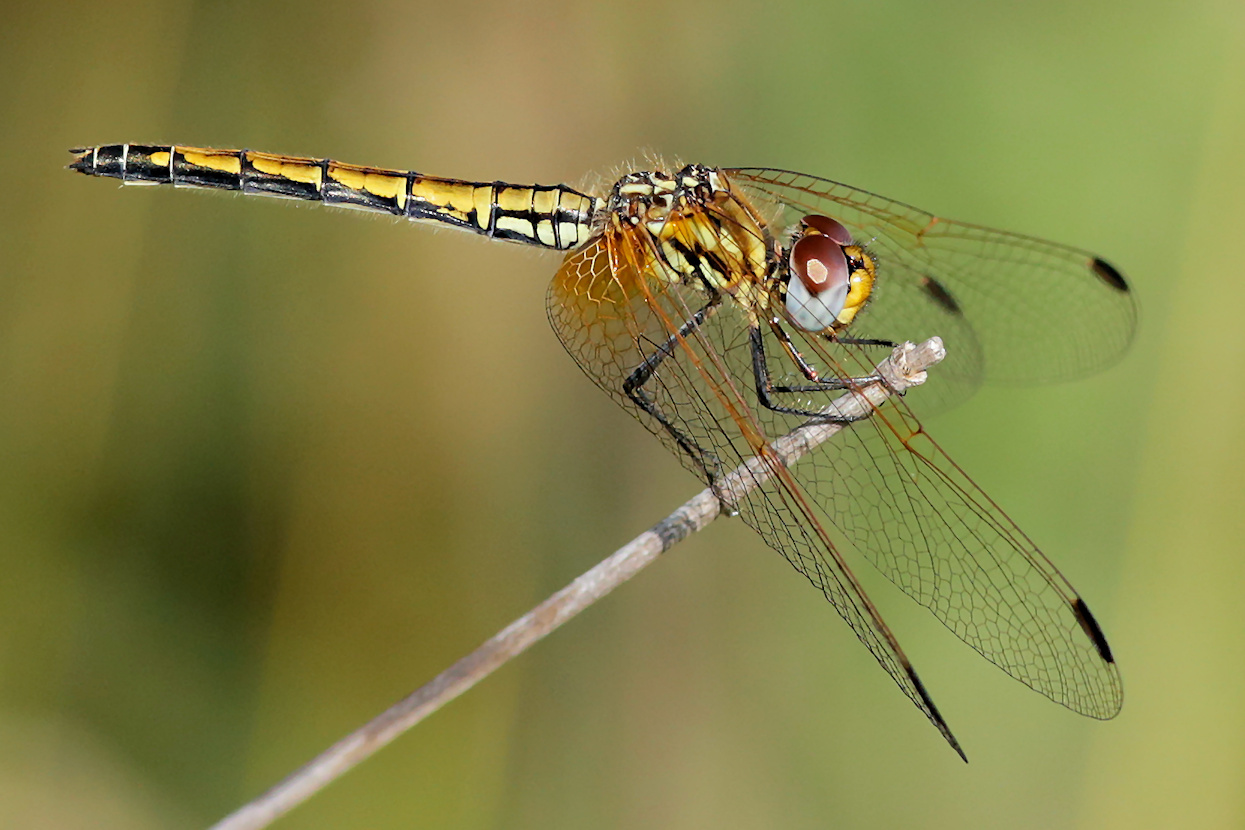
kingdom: Animalia
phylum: Arthropoda
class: Insecta
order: Odonata
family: Libellulidae
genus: Trithemis
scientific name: Trithemis arteriosa
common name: Red-veined dropwing
